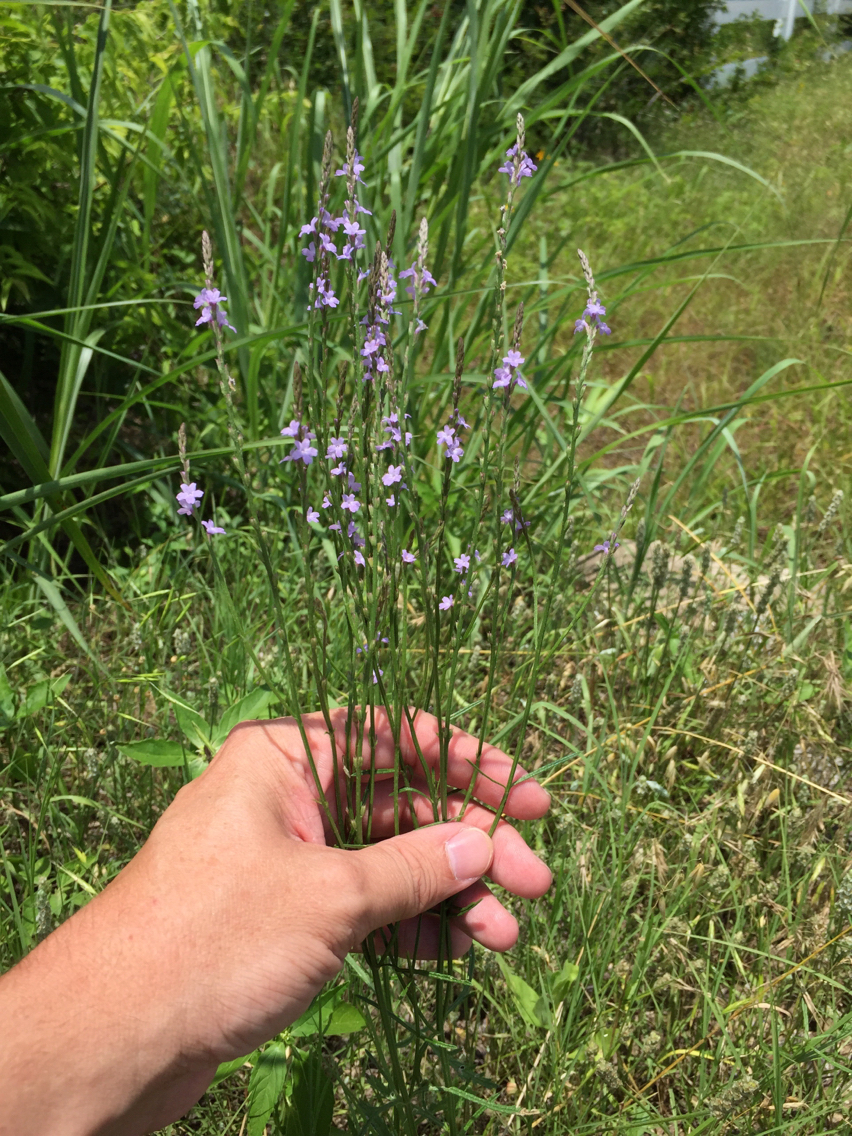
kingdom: Plantae
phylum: Tracheophyta
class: Magnoliopsida
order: Lamiales
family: Verbenaceae
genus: Verbena
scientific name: Verbena halei
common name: Texas vervain
